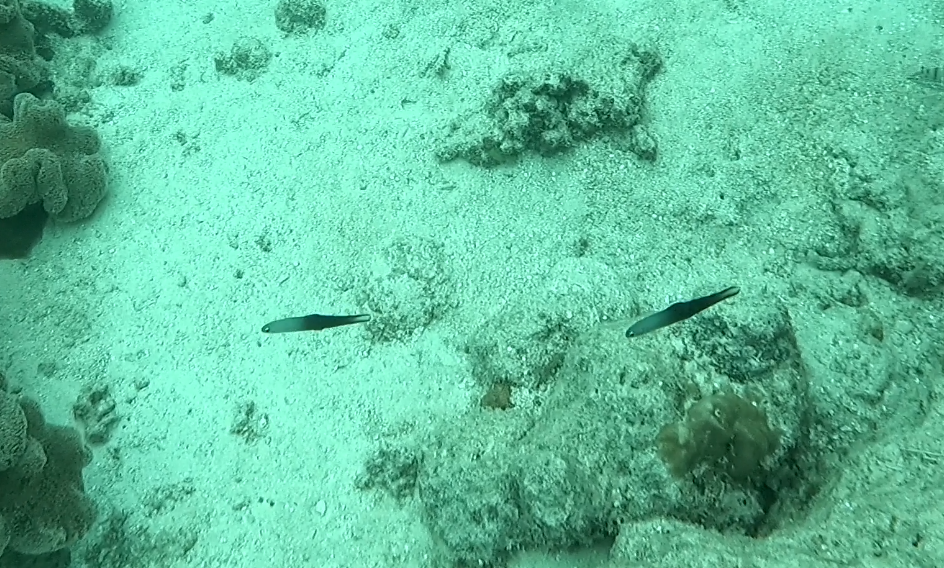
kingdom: Animalia
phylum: Chordata
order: Perciformes
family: Microdesmidae
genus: Ptereleotris
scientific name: Ptereleotris evides
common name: Blackfin dartfish
